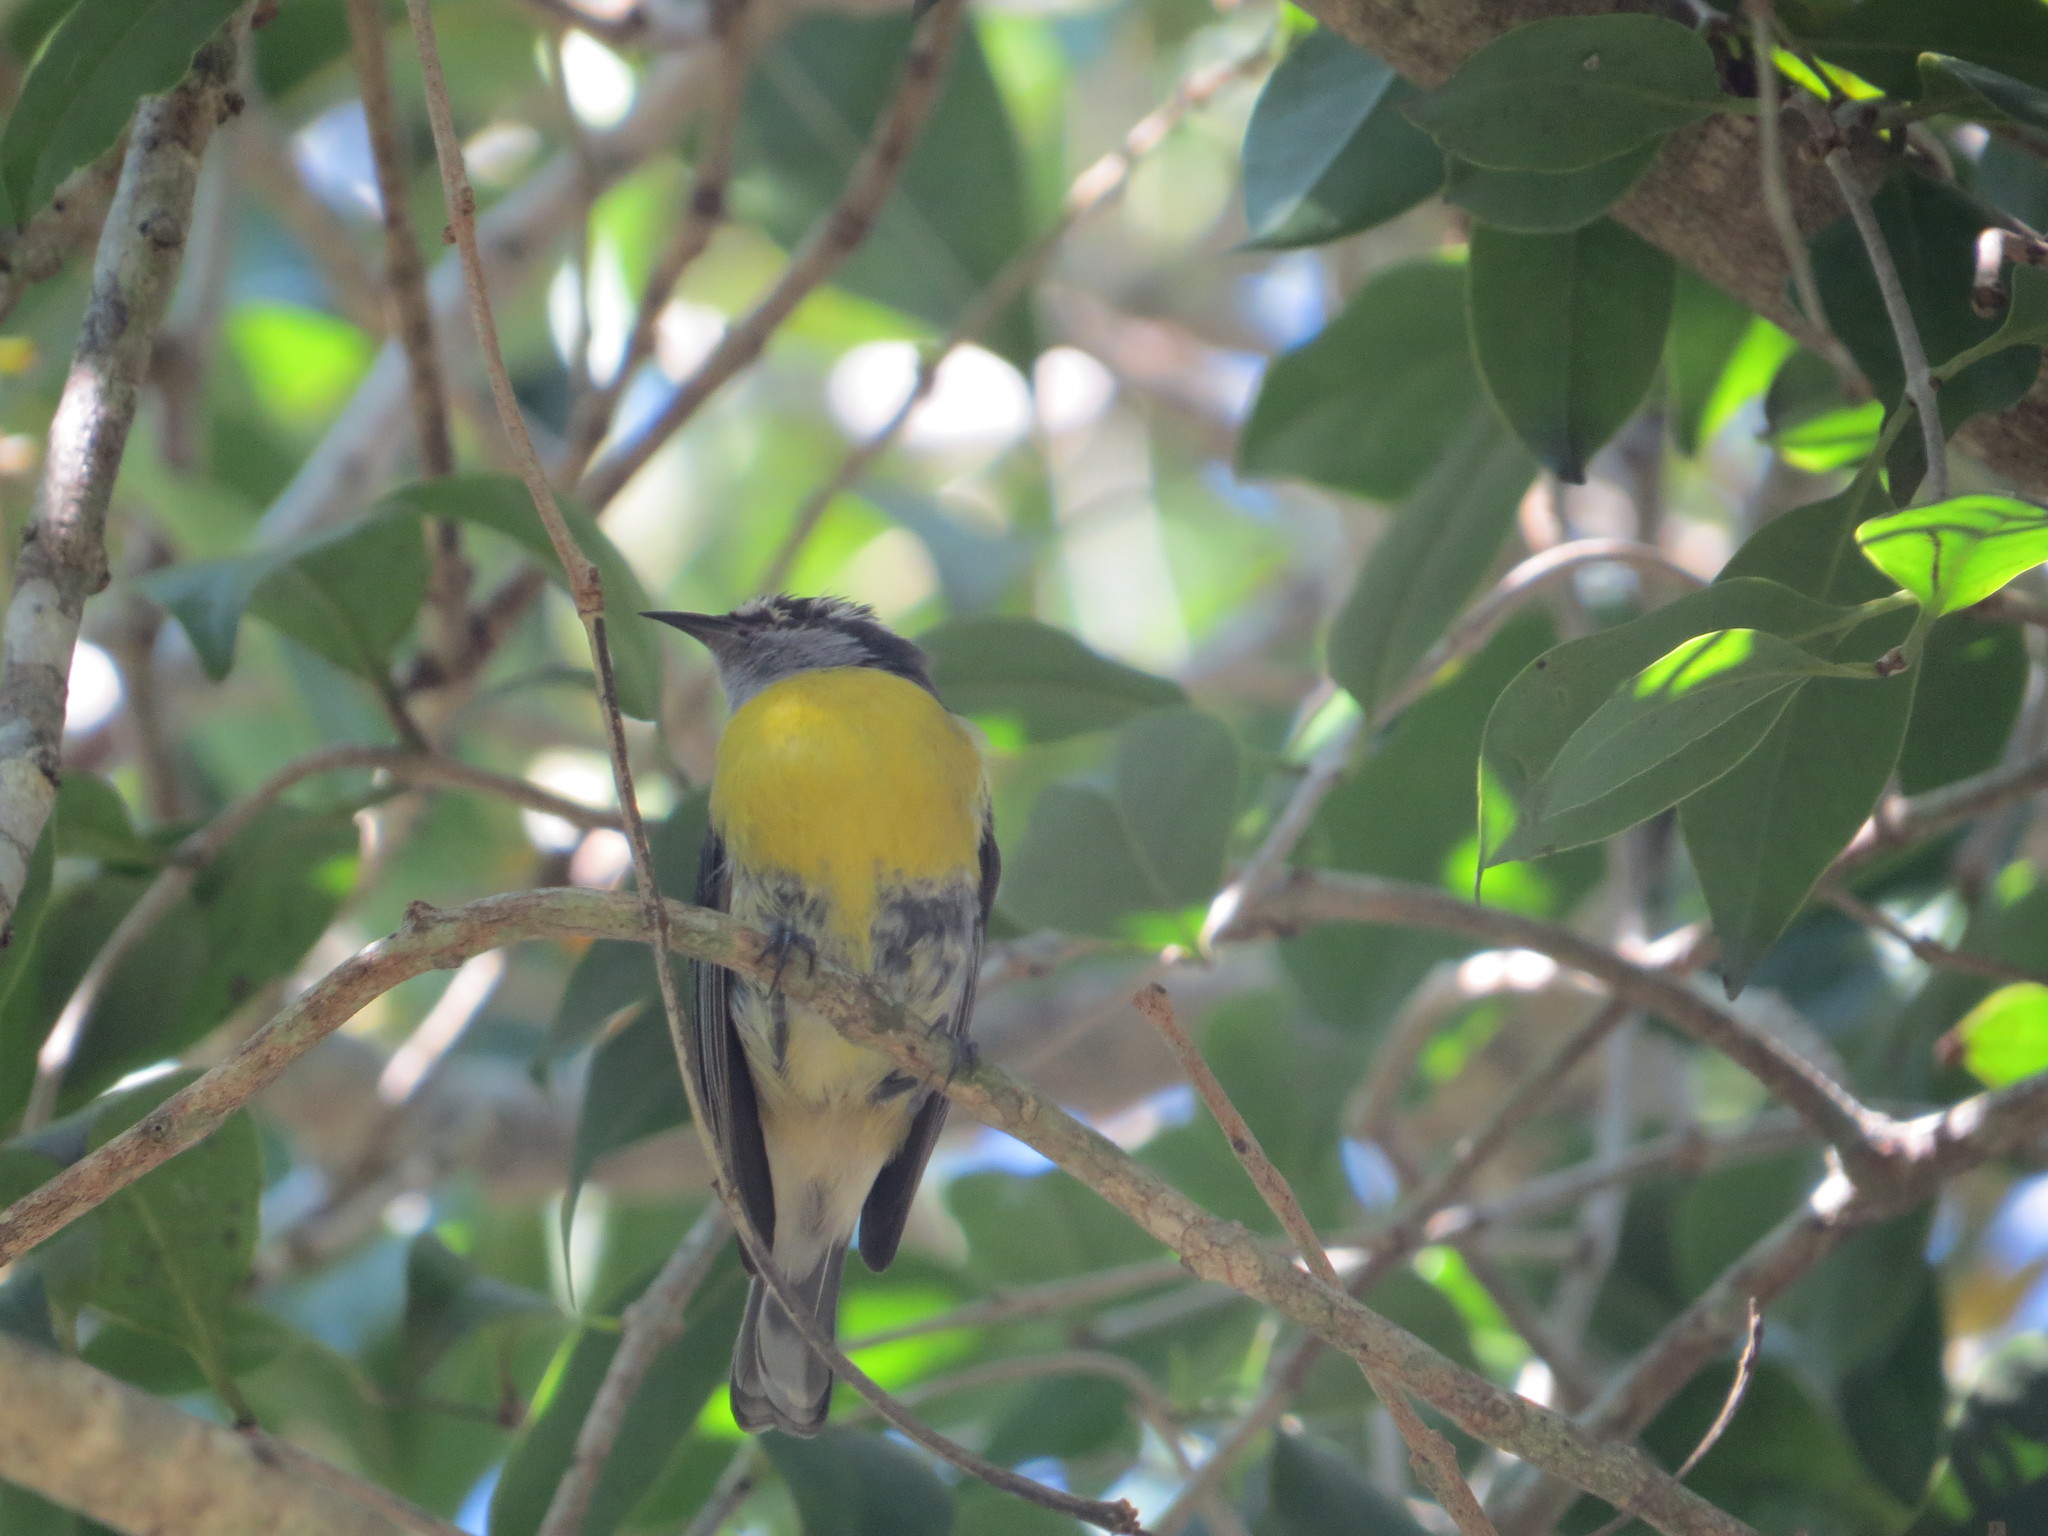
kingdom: Animalia
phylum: Chordata
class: Aves
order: Passeriformes
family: Thraupidae
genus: Coereba
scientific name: Coereba flaveola
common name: Bananaquit
